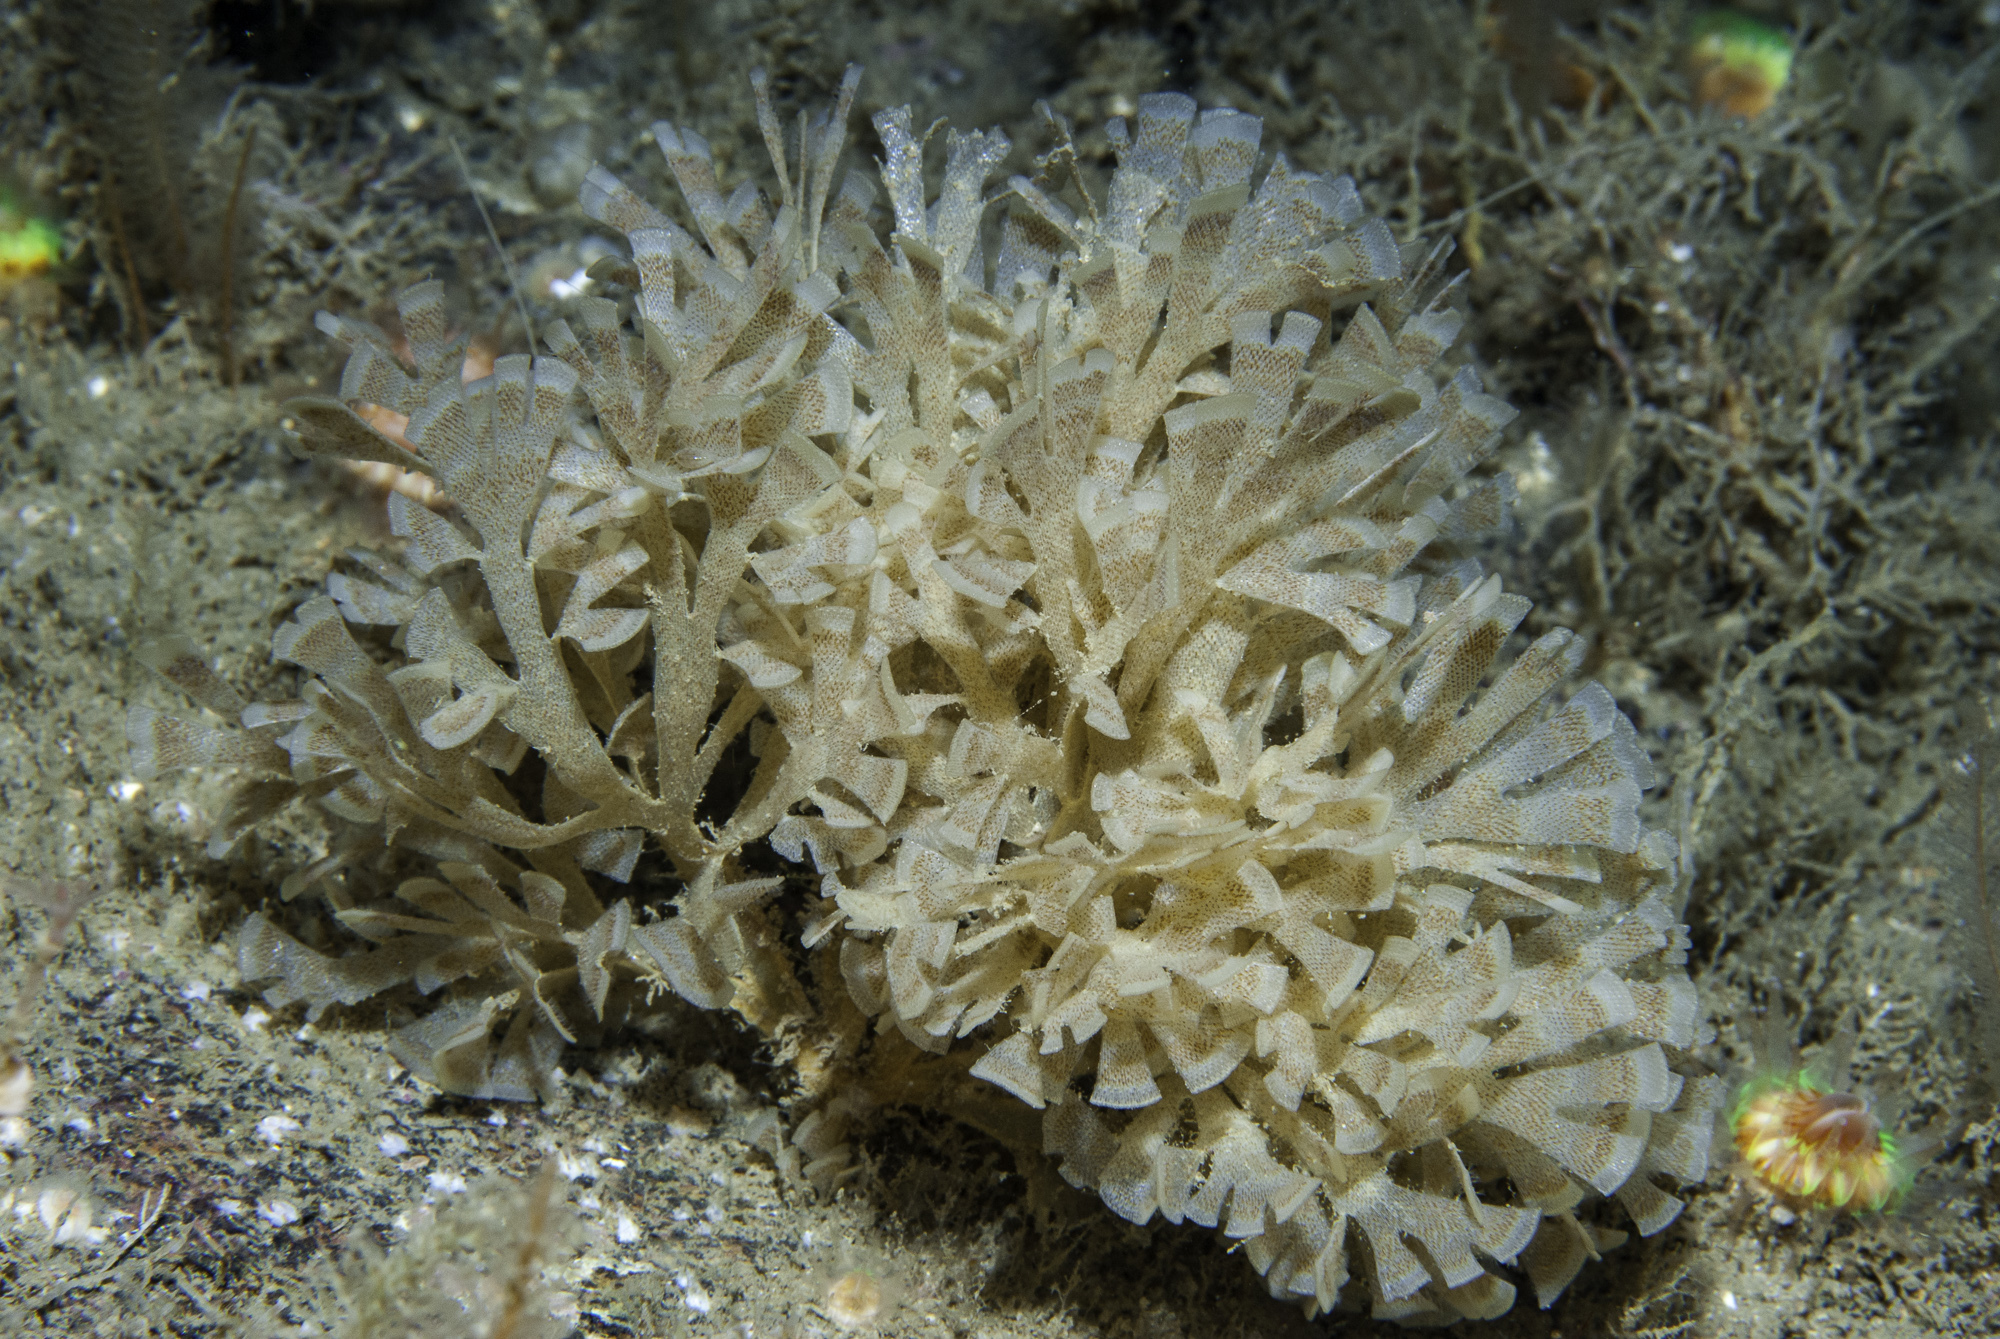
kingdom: Animalia
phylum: Bryozoa
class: Gymnolaemata
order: Cheilostomatida
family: Flustridae
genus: Securiflustra
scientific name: Securiflustra securifrons
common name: Narrow-leaved hornwrack
